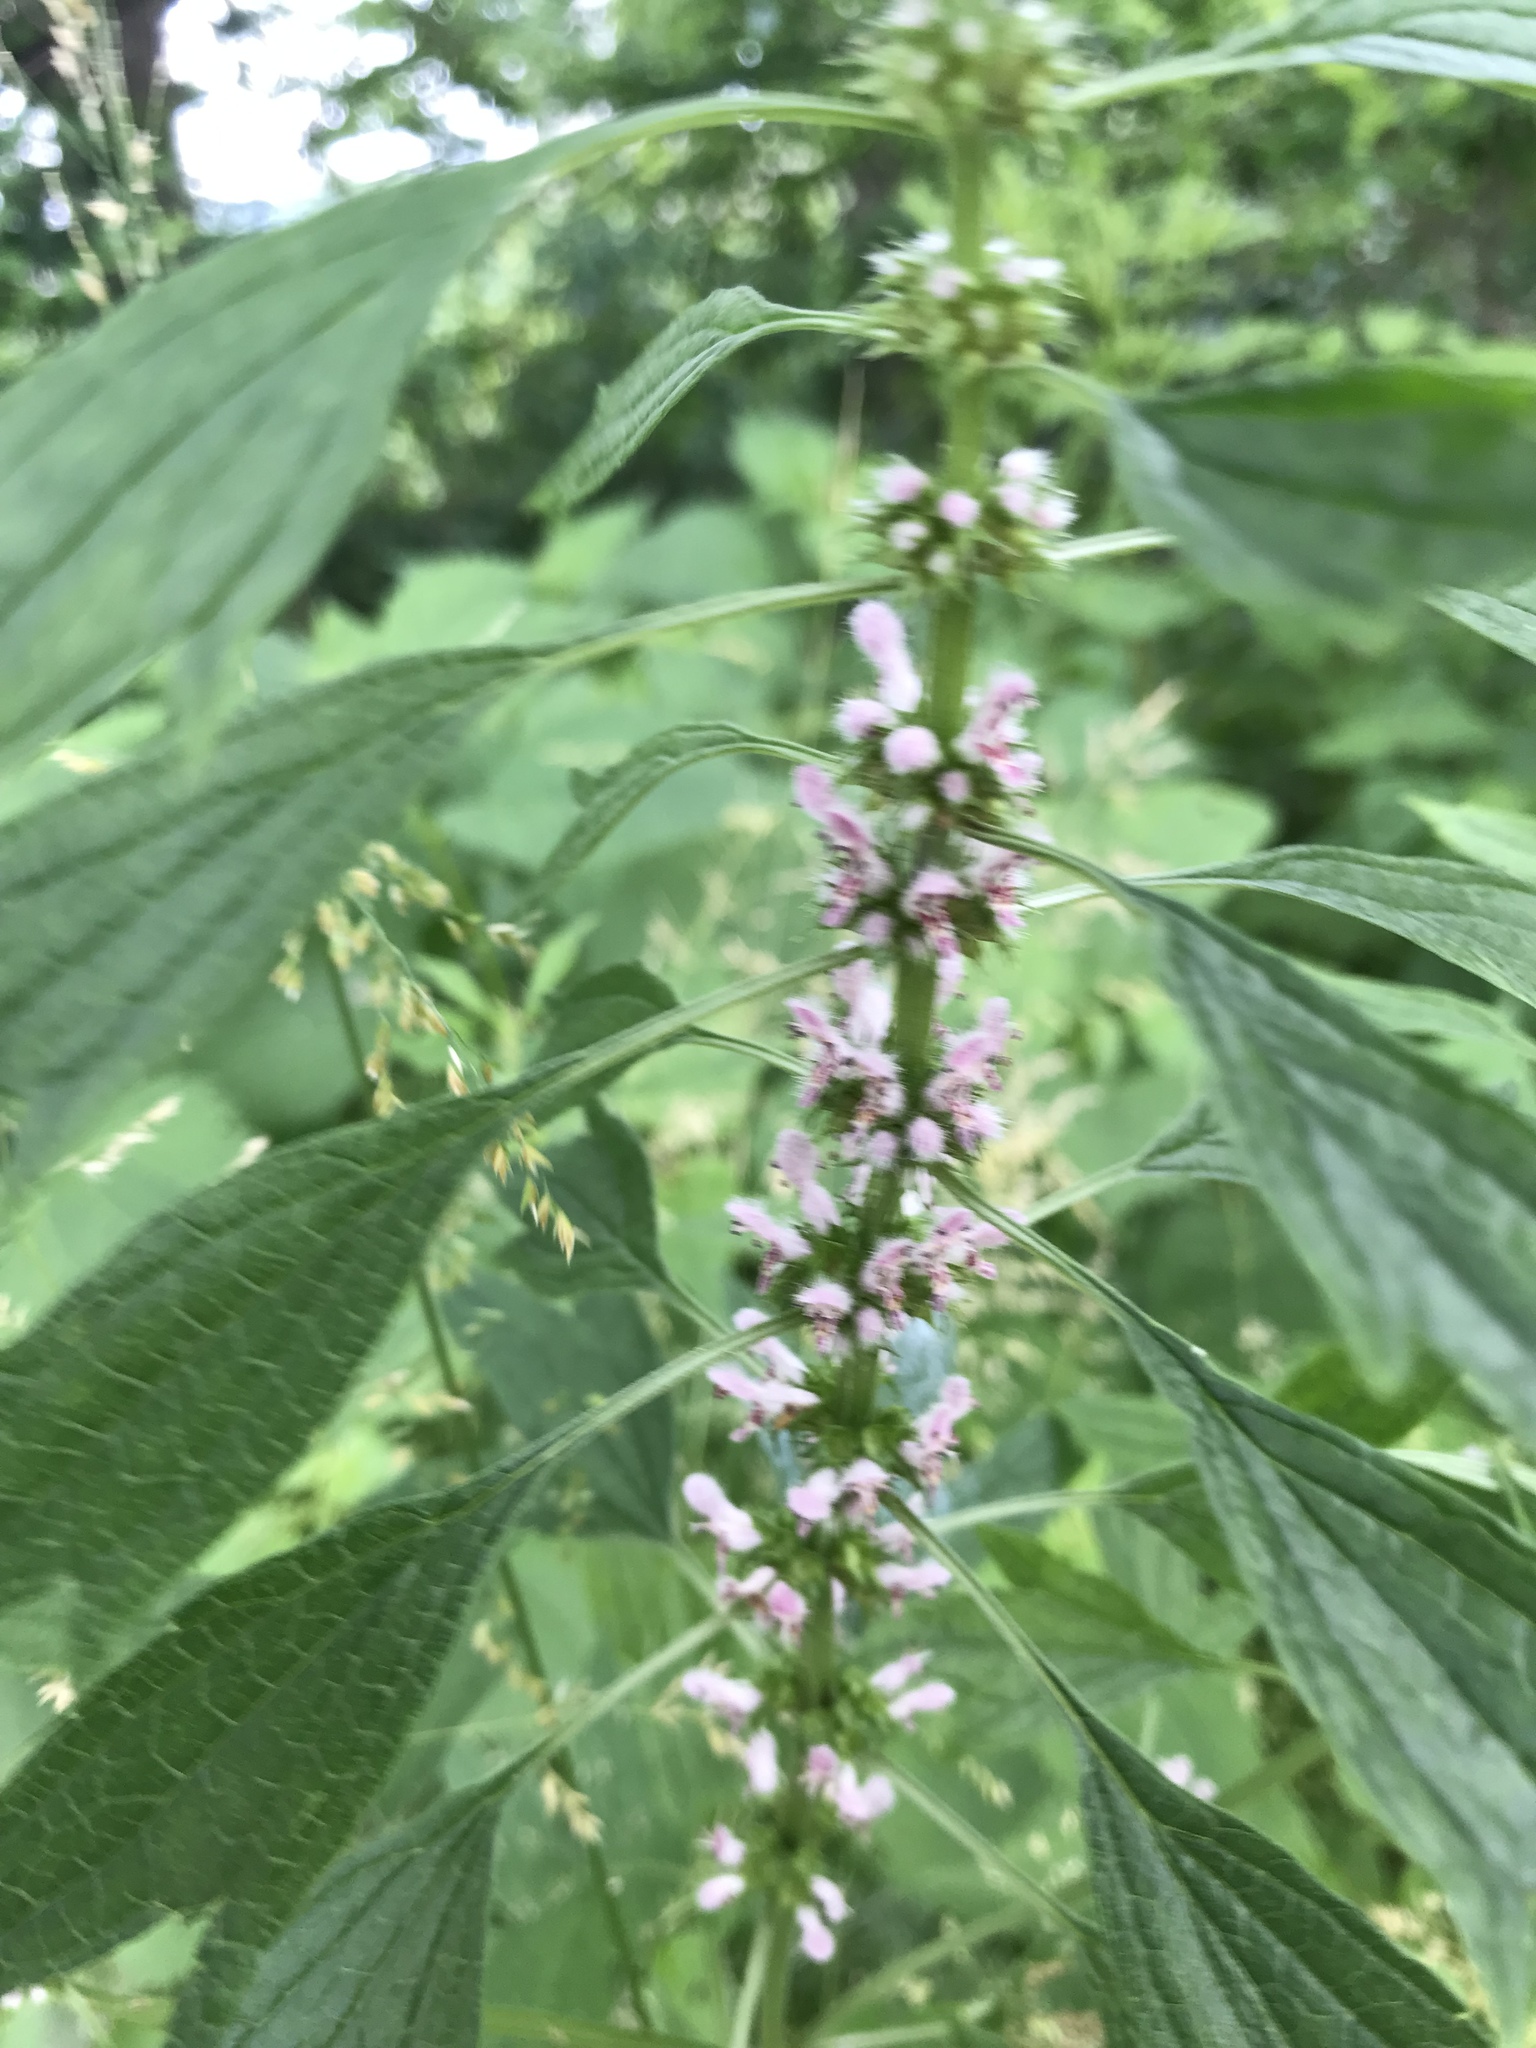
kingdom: Plantae
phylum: Tracheophyta
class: Magnoliopsida
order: Lamiales
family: Lamiaceae
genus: Leonurus
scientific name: Leonurus cardiaca
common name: Motherwort
